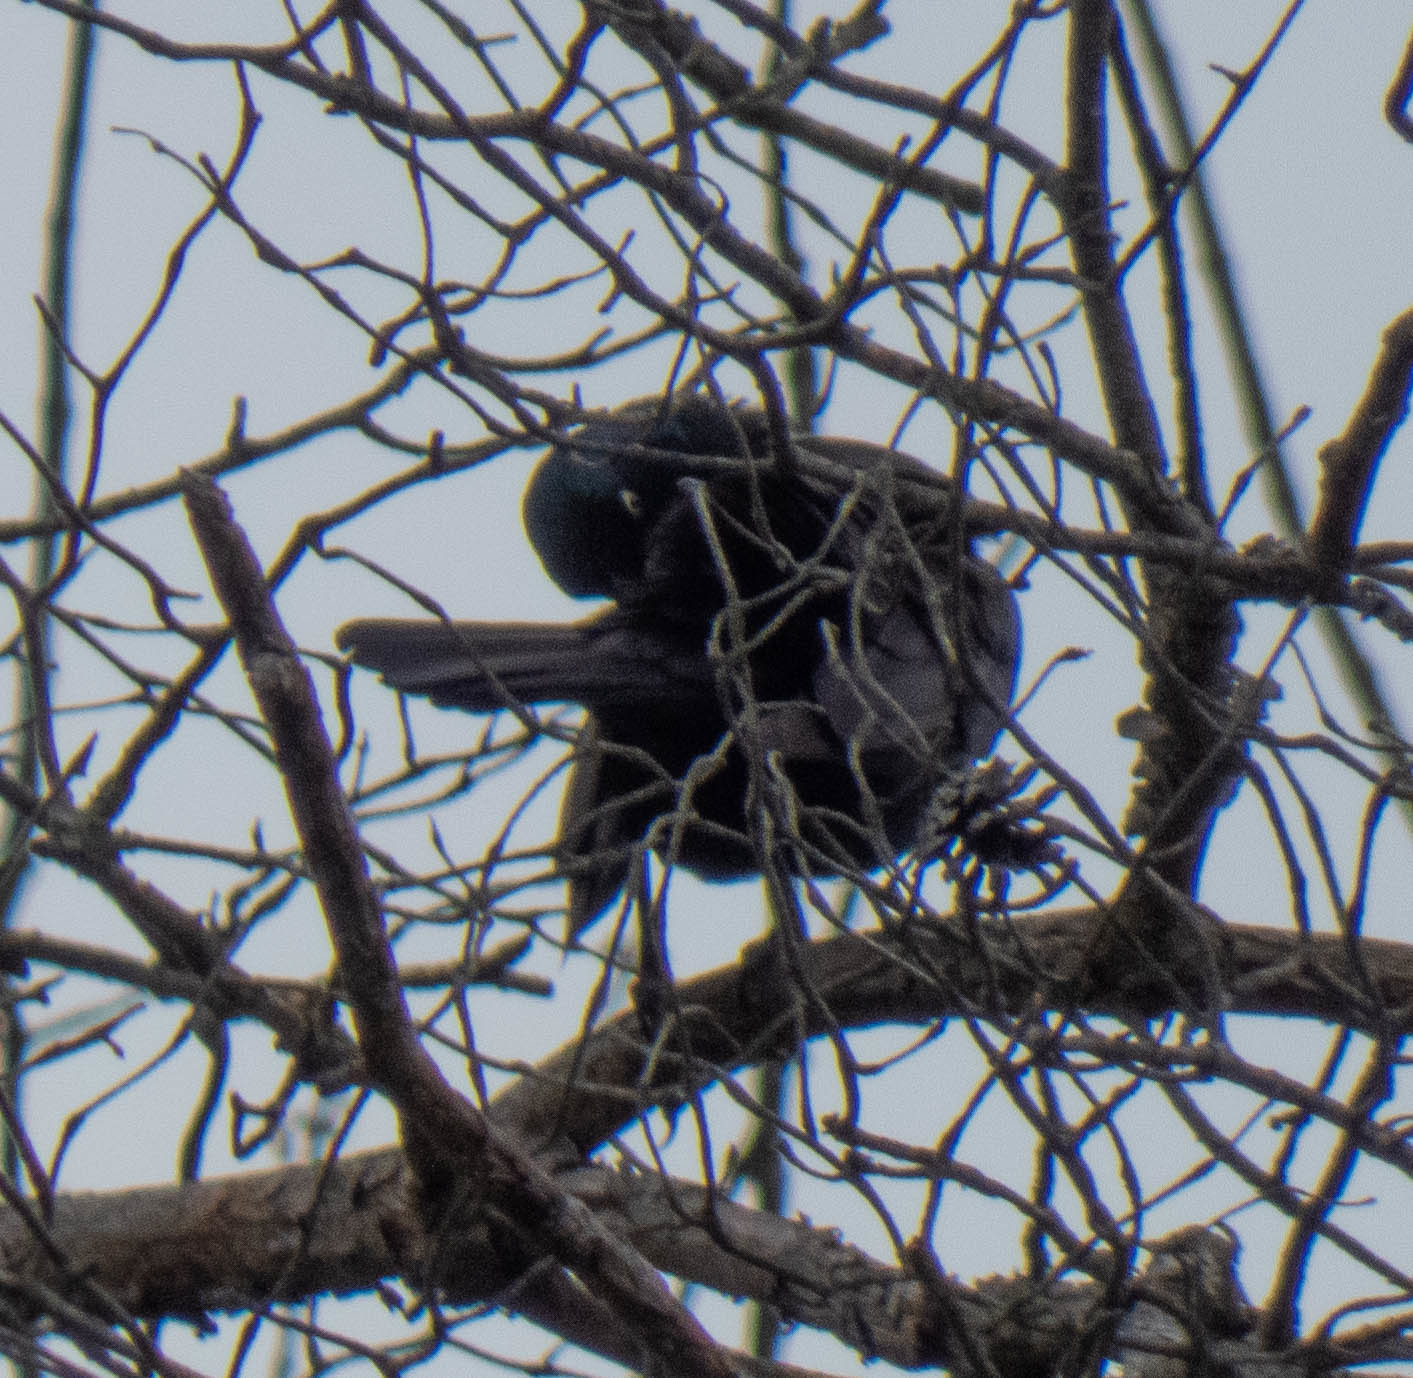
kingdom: Animalia
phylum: Chordata
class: Aves
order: Passeriformes
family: Icteridae
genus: Quiscalus
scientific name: Quiscalus quiscula
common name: Common grackle
